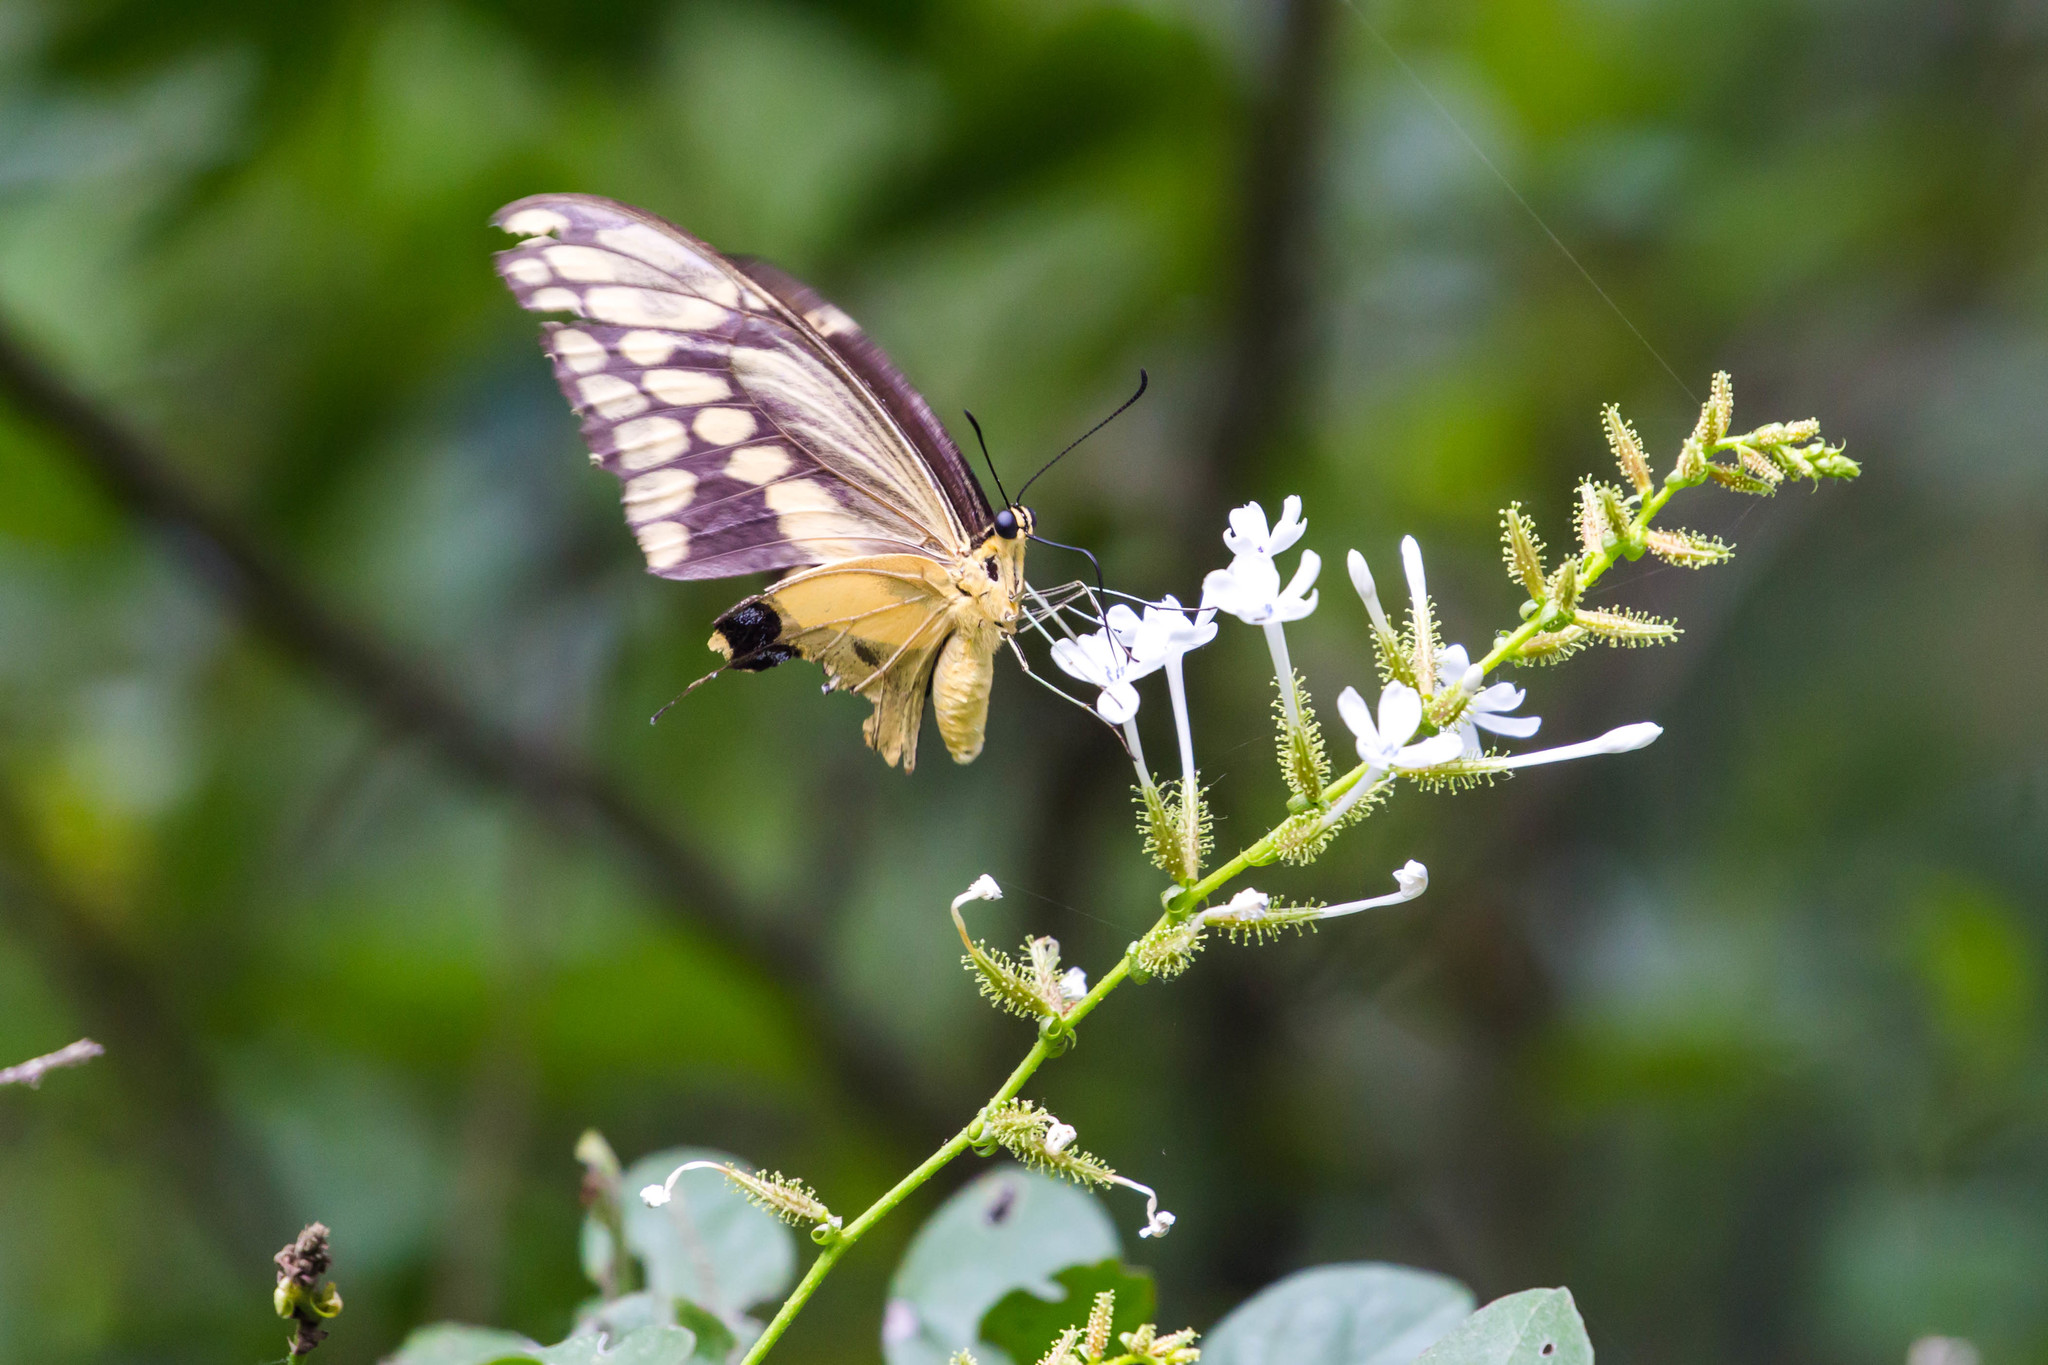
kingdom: Animalia
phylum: Arthropoda
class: Insecta
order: Lepidoptera
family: Papilionidae
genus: Papilio
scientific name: Papilio rumiko
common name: Western giant swallowtail
